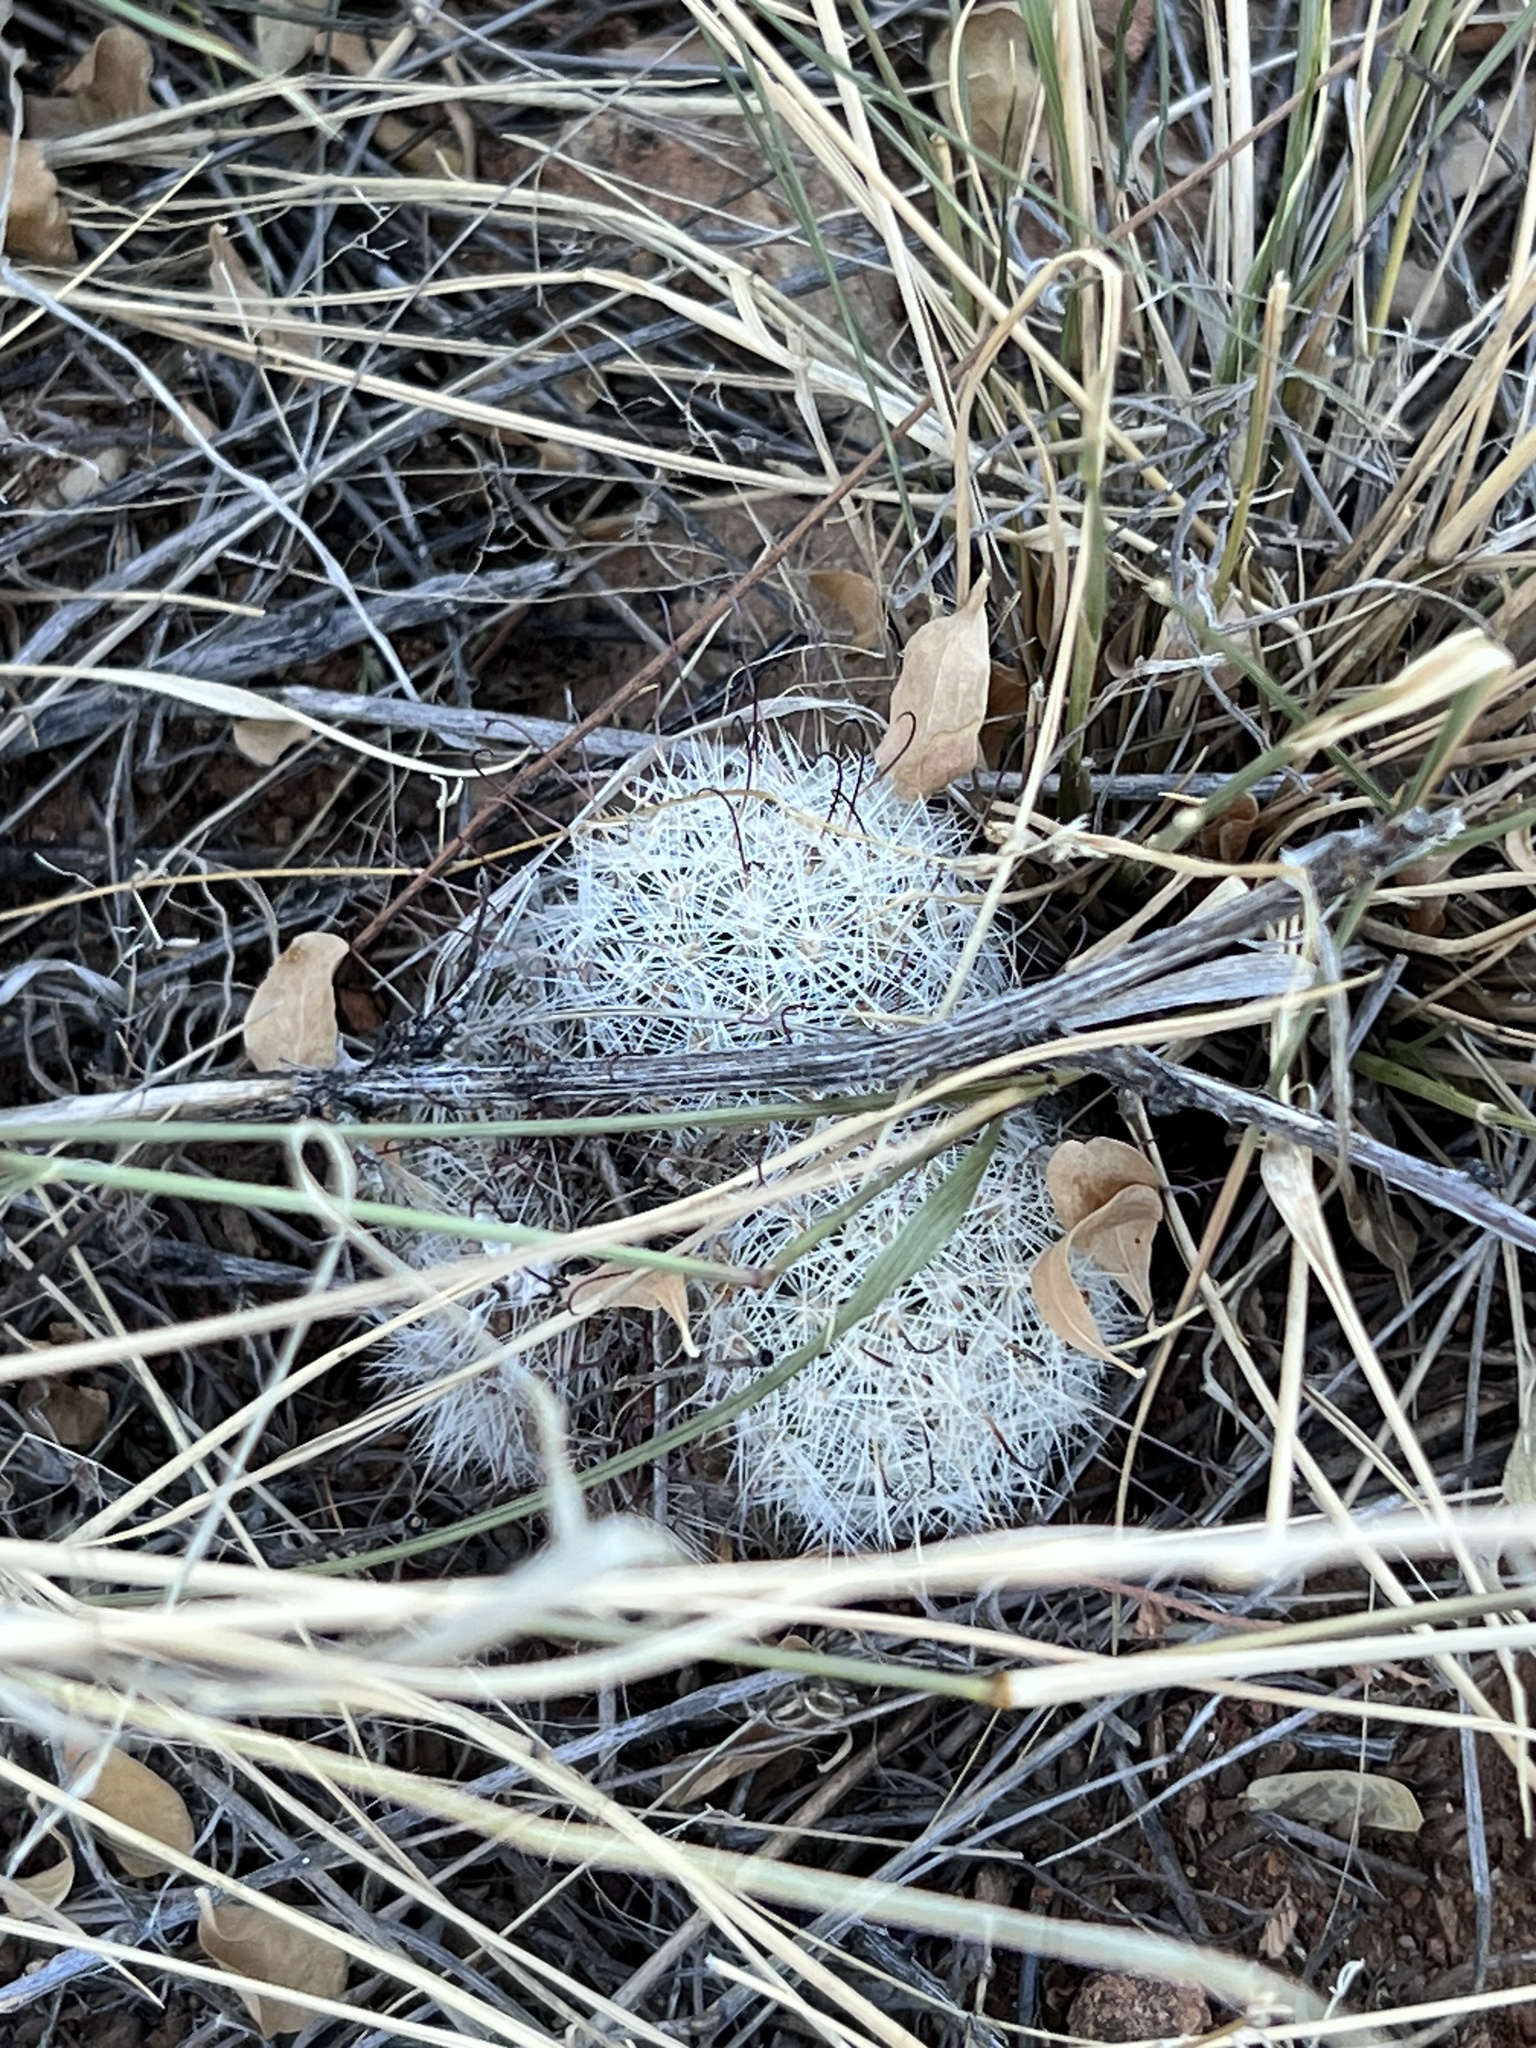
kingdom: Plantae
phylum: Tracheophyta
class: Magnoliopsida
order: Caryophyllales
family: Cactaceae
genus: Cochemiea
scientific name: Cochemiea grahamii
